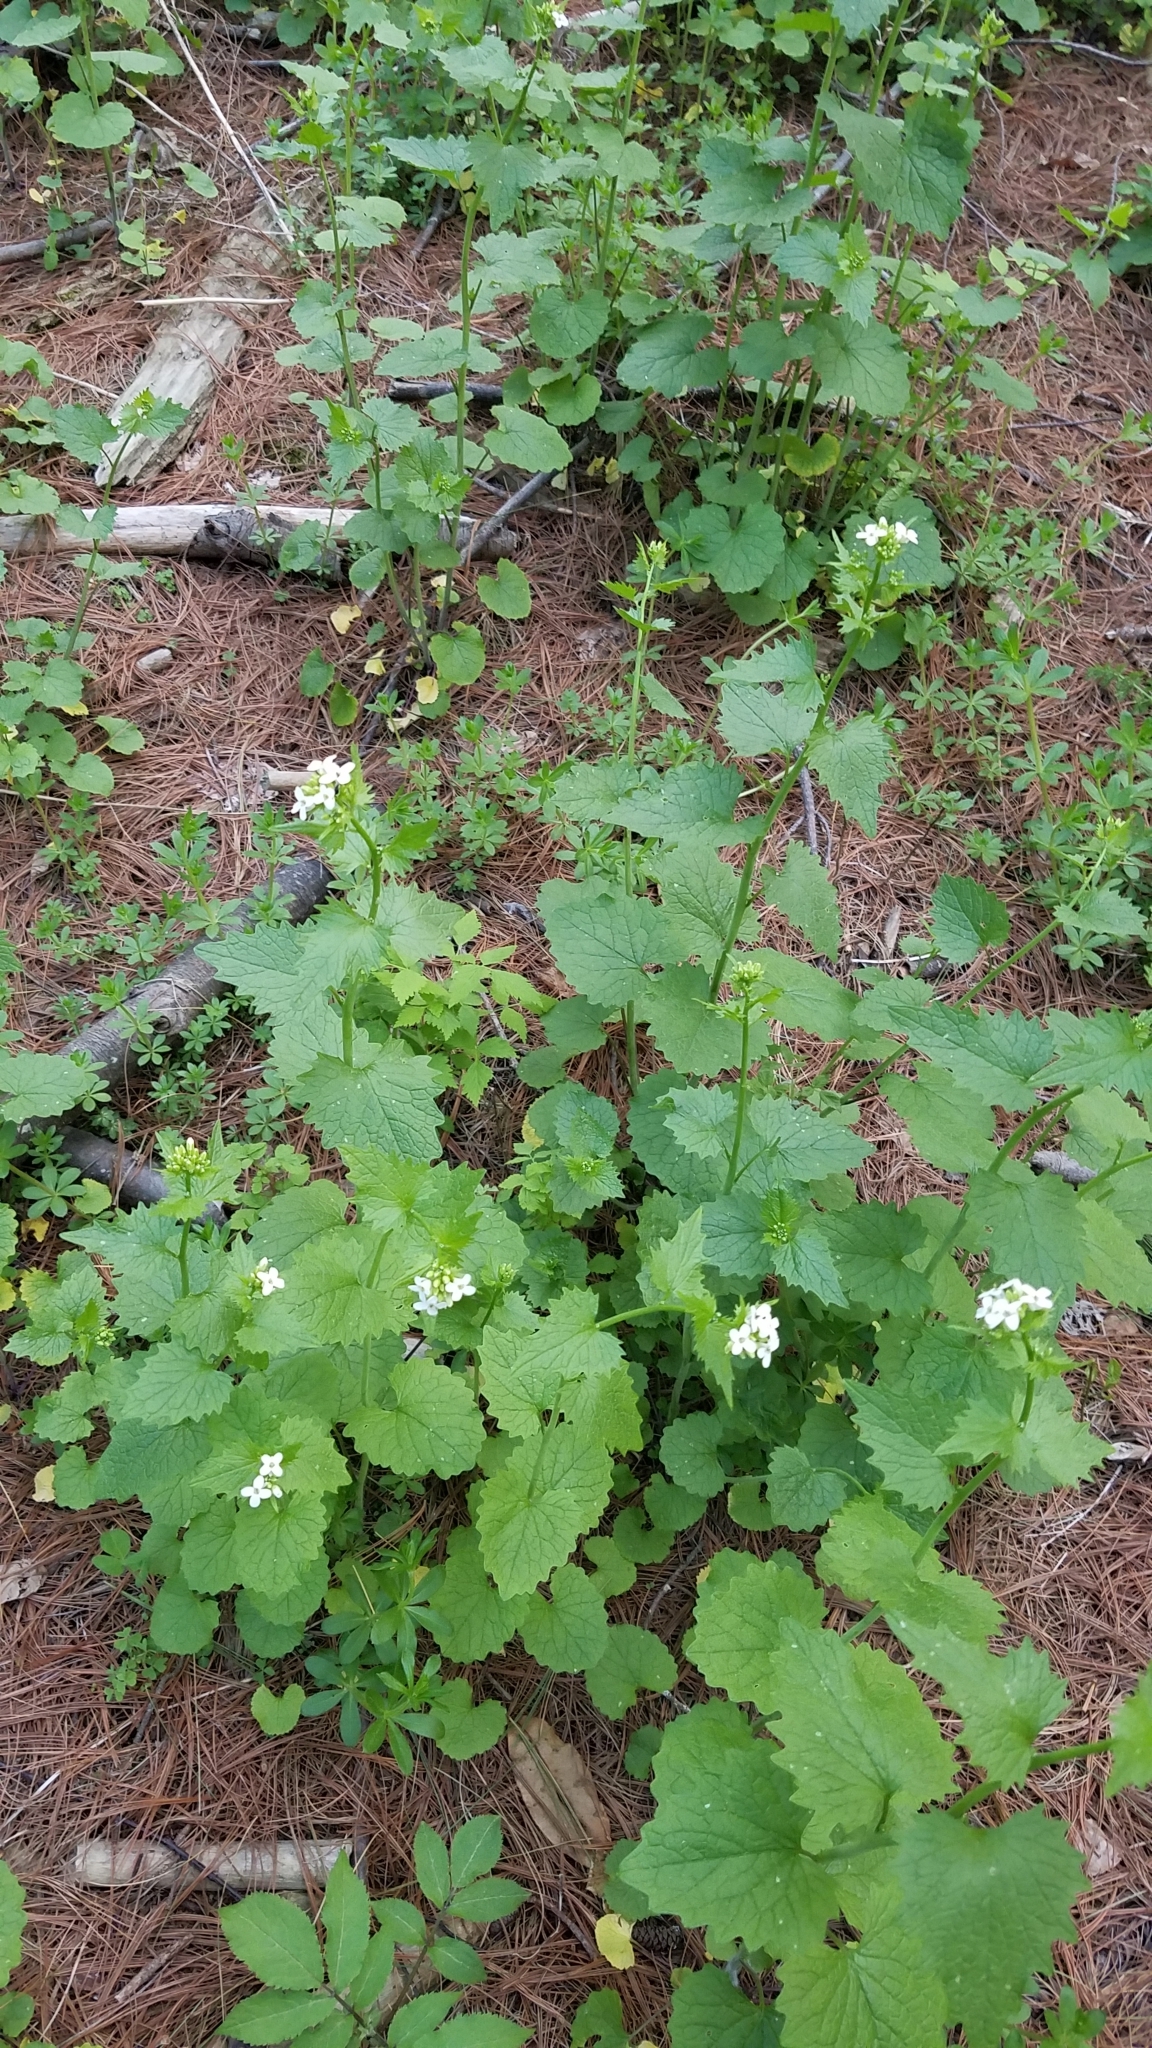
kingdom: Plantae
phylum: Tracheophyta
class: Magnoliopsida
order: Brassicales
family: Brassicaceae
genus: Alliaria
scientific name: Alliaria petiolata
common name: Garlic mustard
